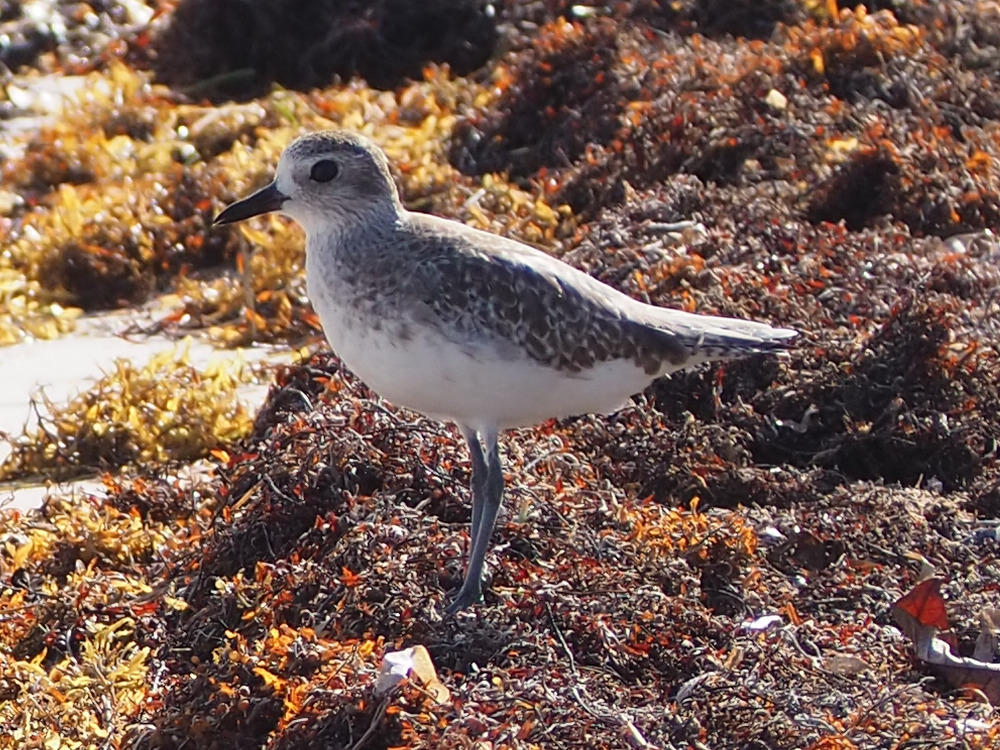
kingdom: Animalia
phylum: Chordata
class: Aves
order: Charadriiformes
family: Charadriidae
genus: Pluvialis
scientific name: Pluvialis squatarola
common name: Grey plover
